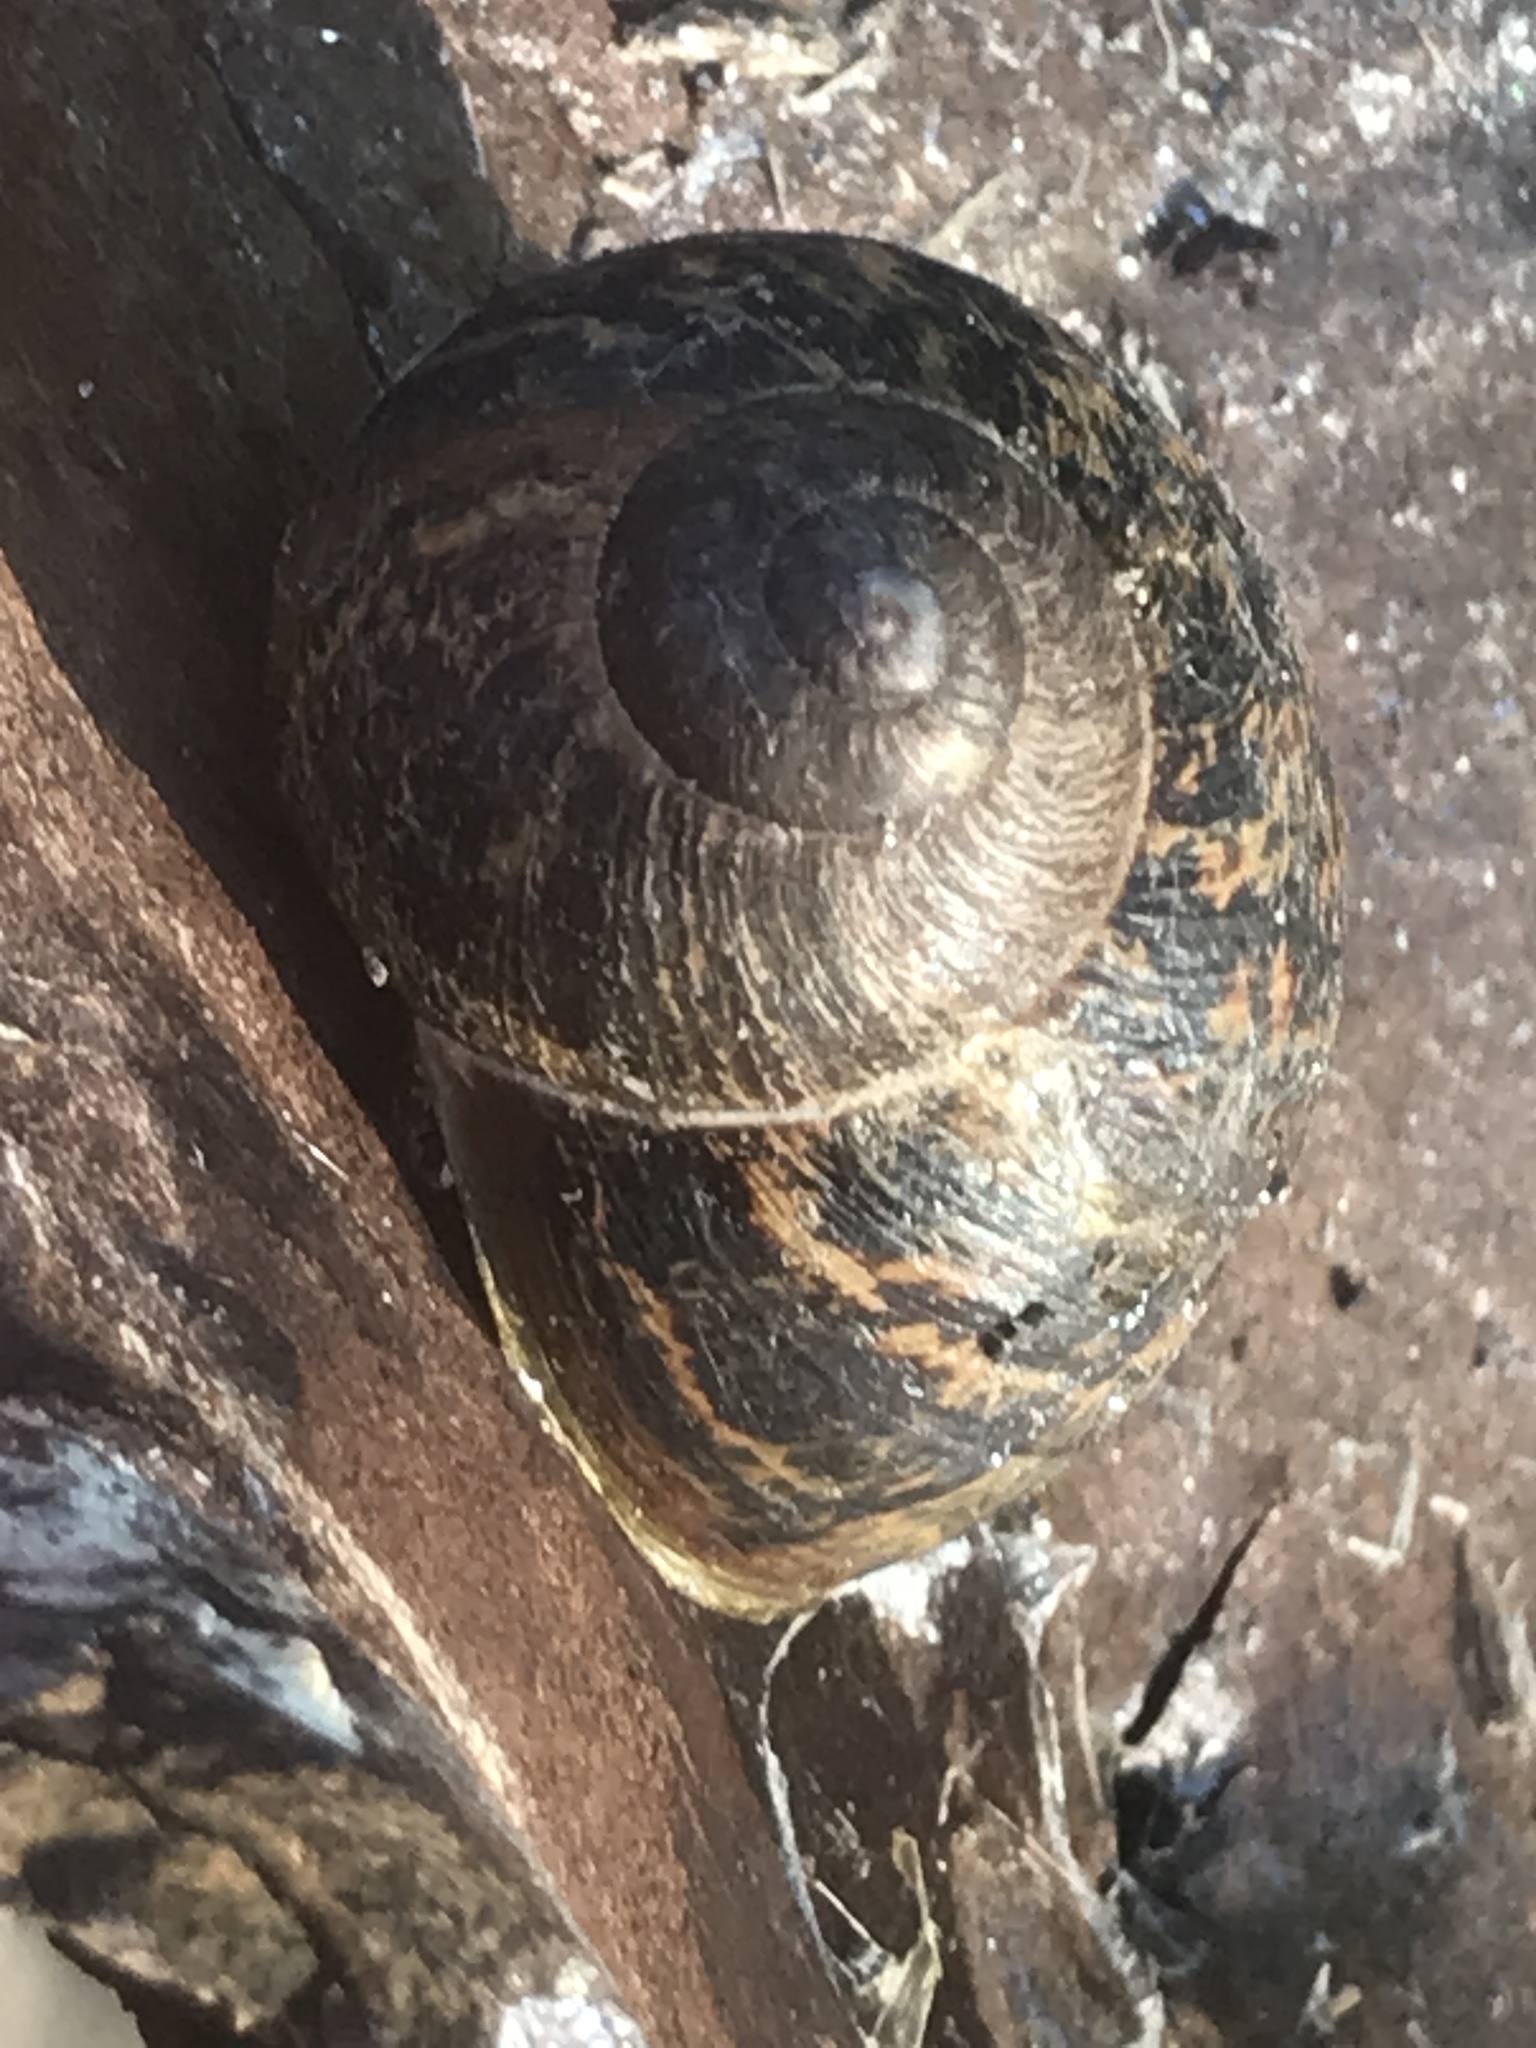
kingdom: Animalia
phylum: Mollusca
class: Gastropoda
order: Stylommatophora
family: Helicidae
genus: Cornu
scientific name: Cornu aspersum
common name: Brown garden snail
